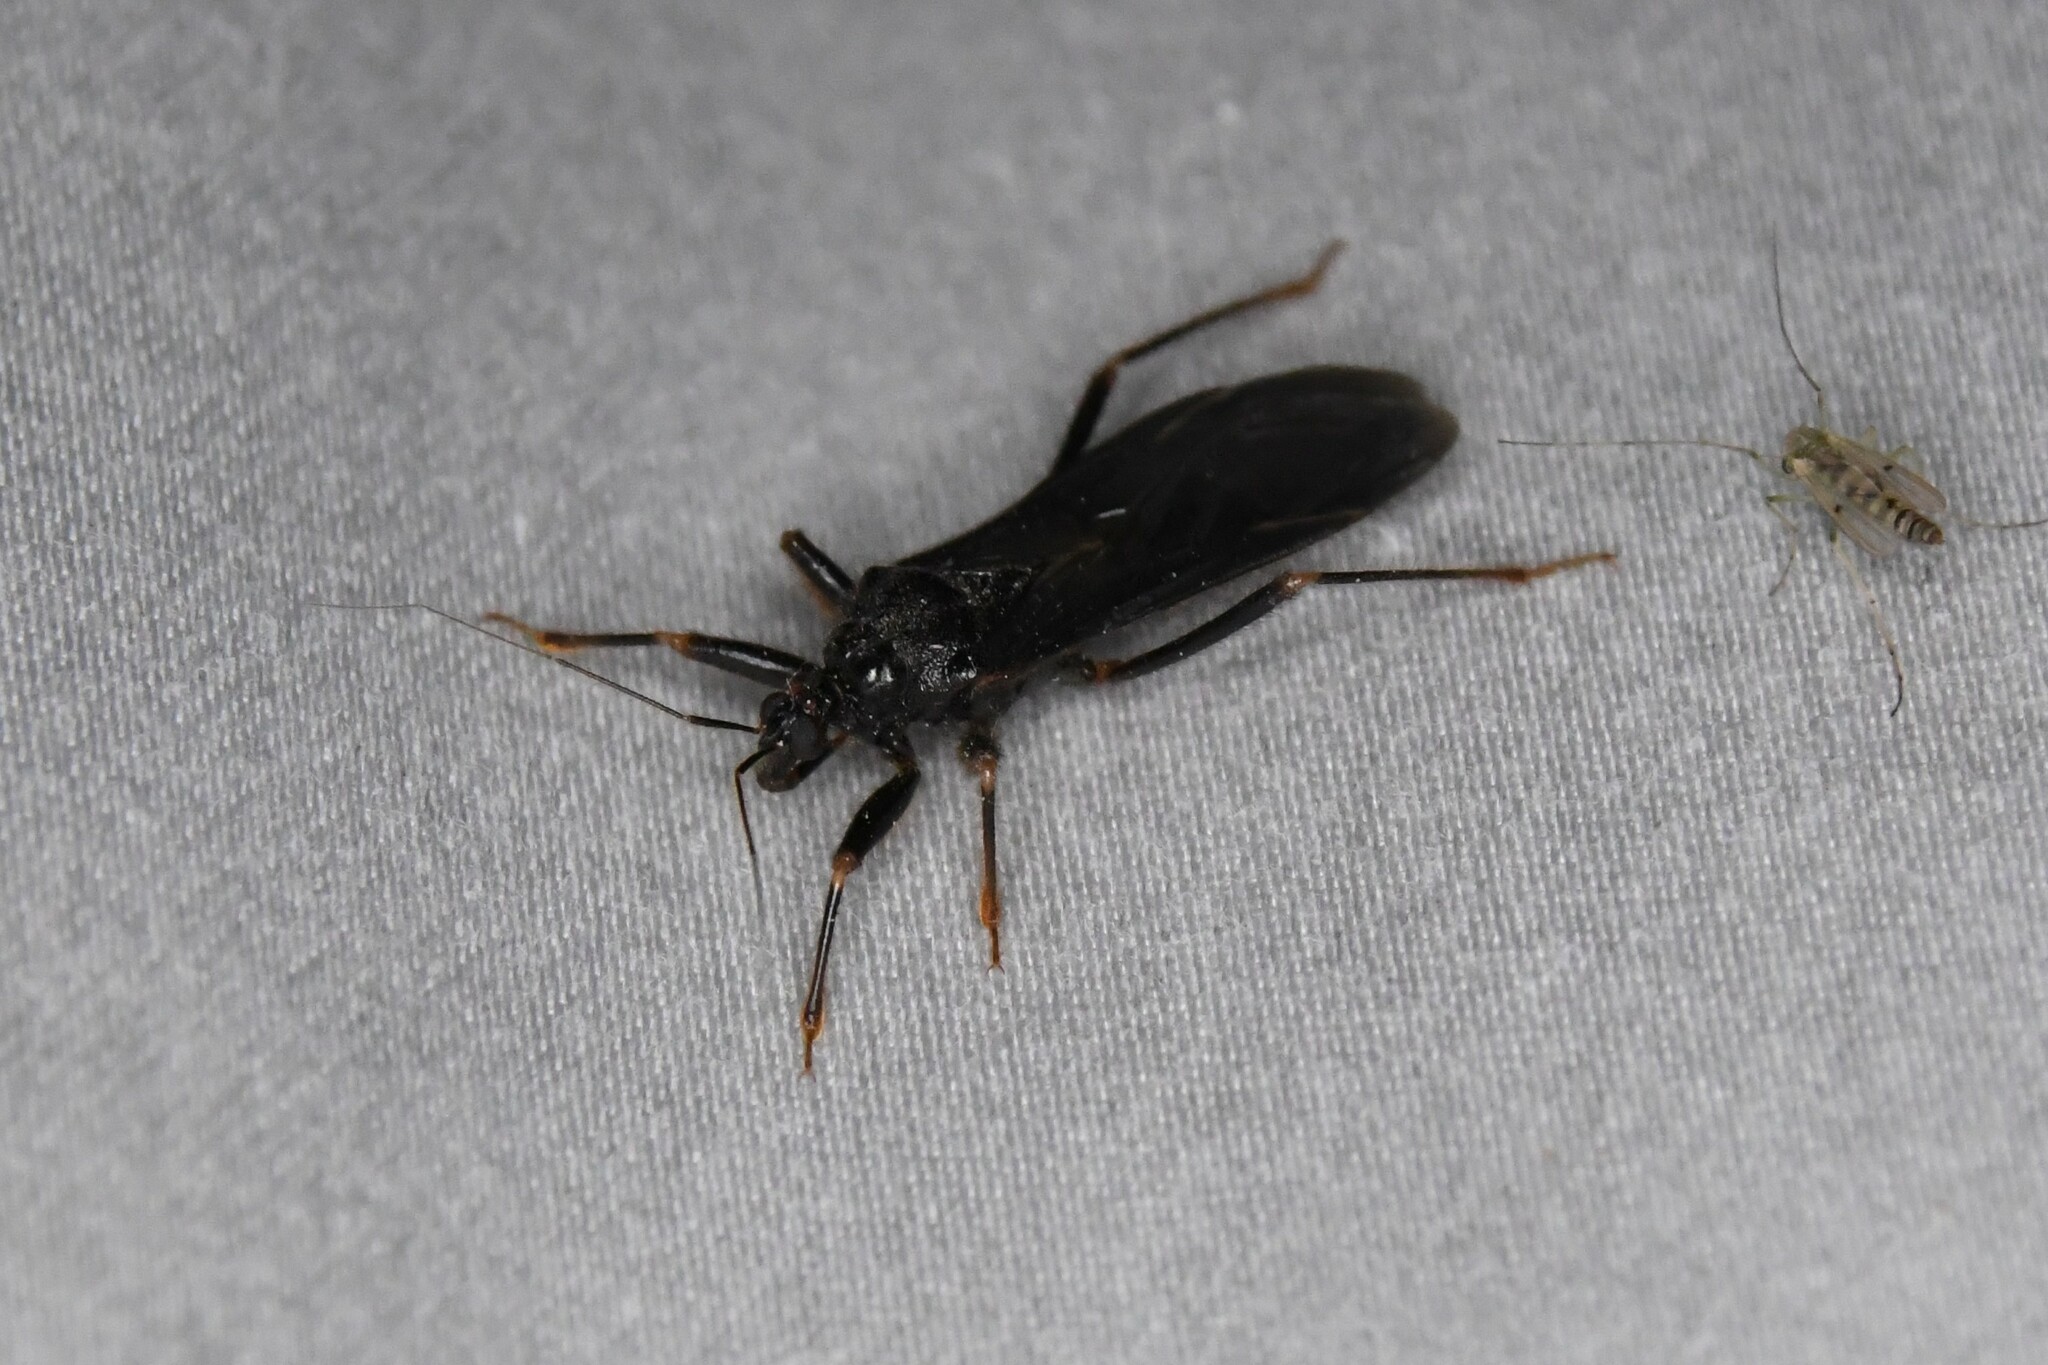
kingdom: Animalia
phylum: Arthropoda
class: Insecta
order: Hemiptera
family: Reduviidae
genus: Reduvius
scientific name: Reduvius personatus
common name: Masked hunter
